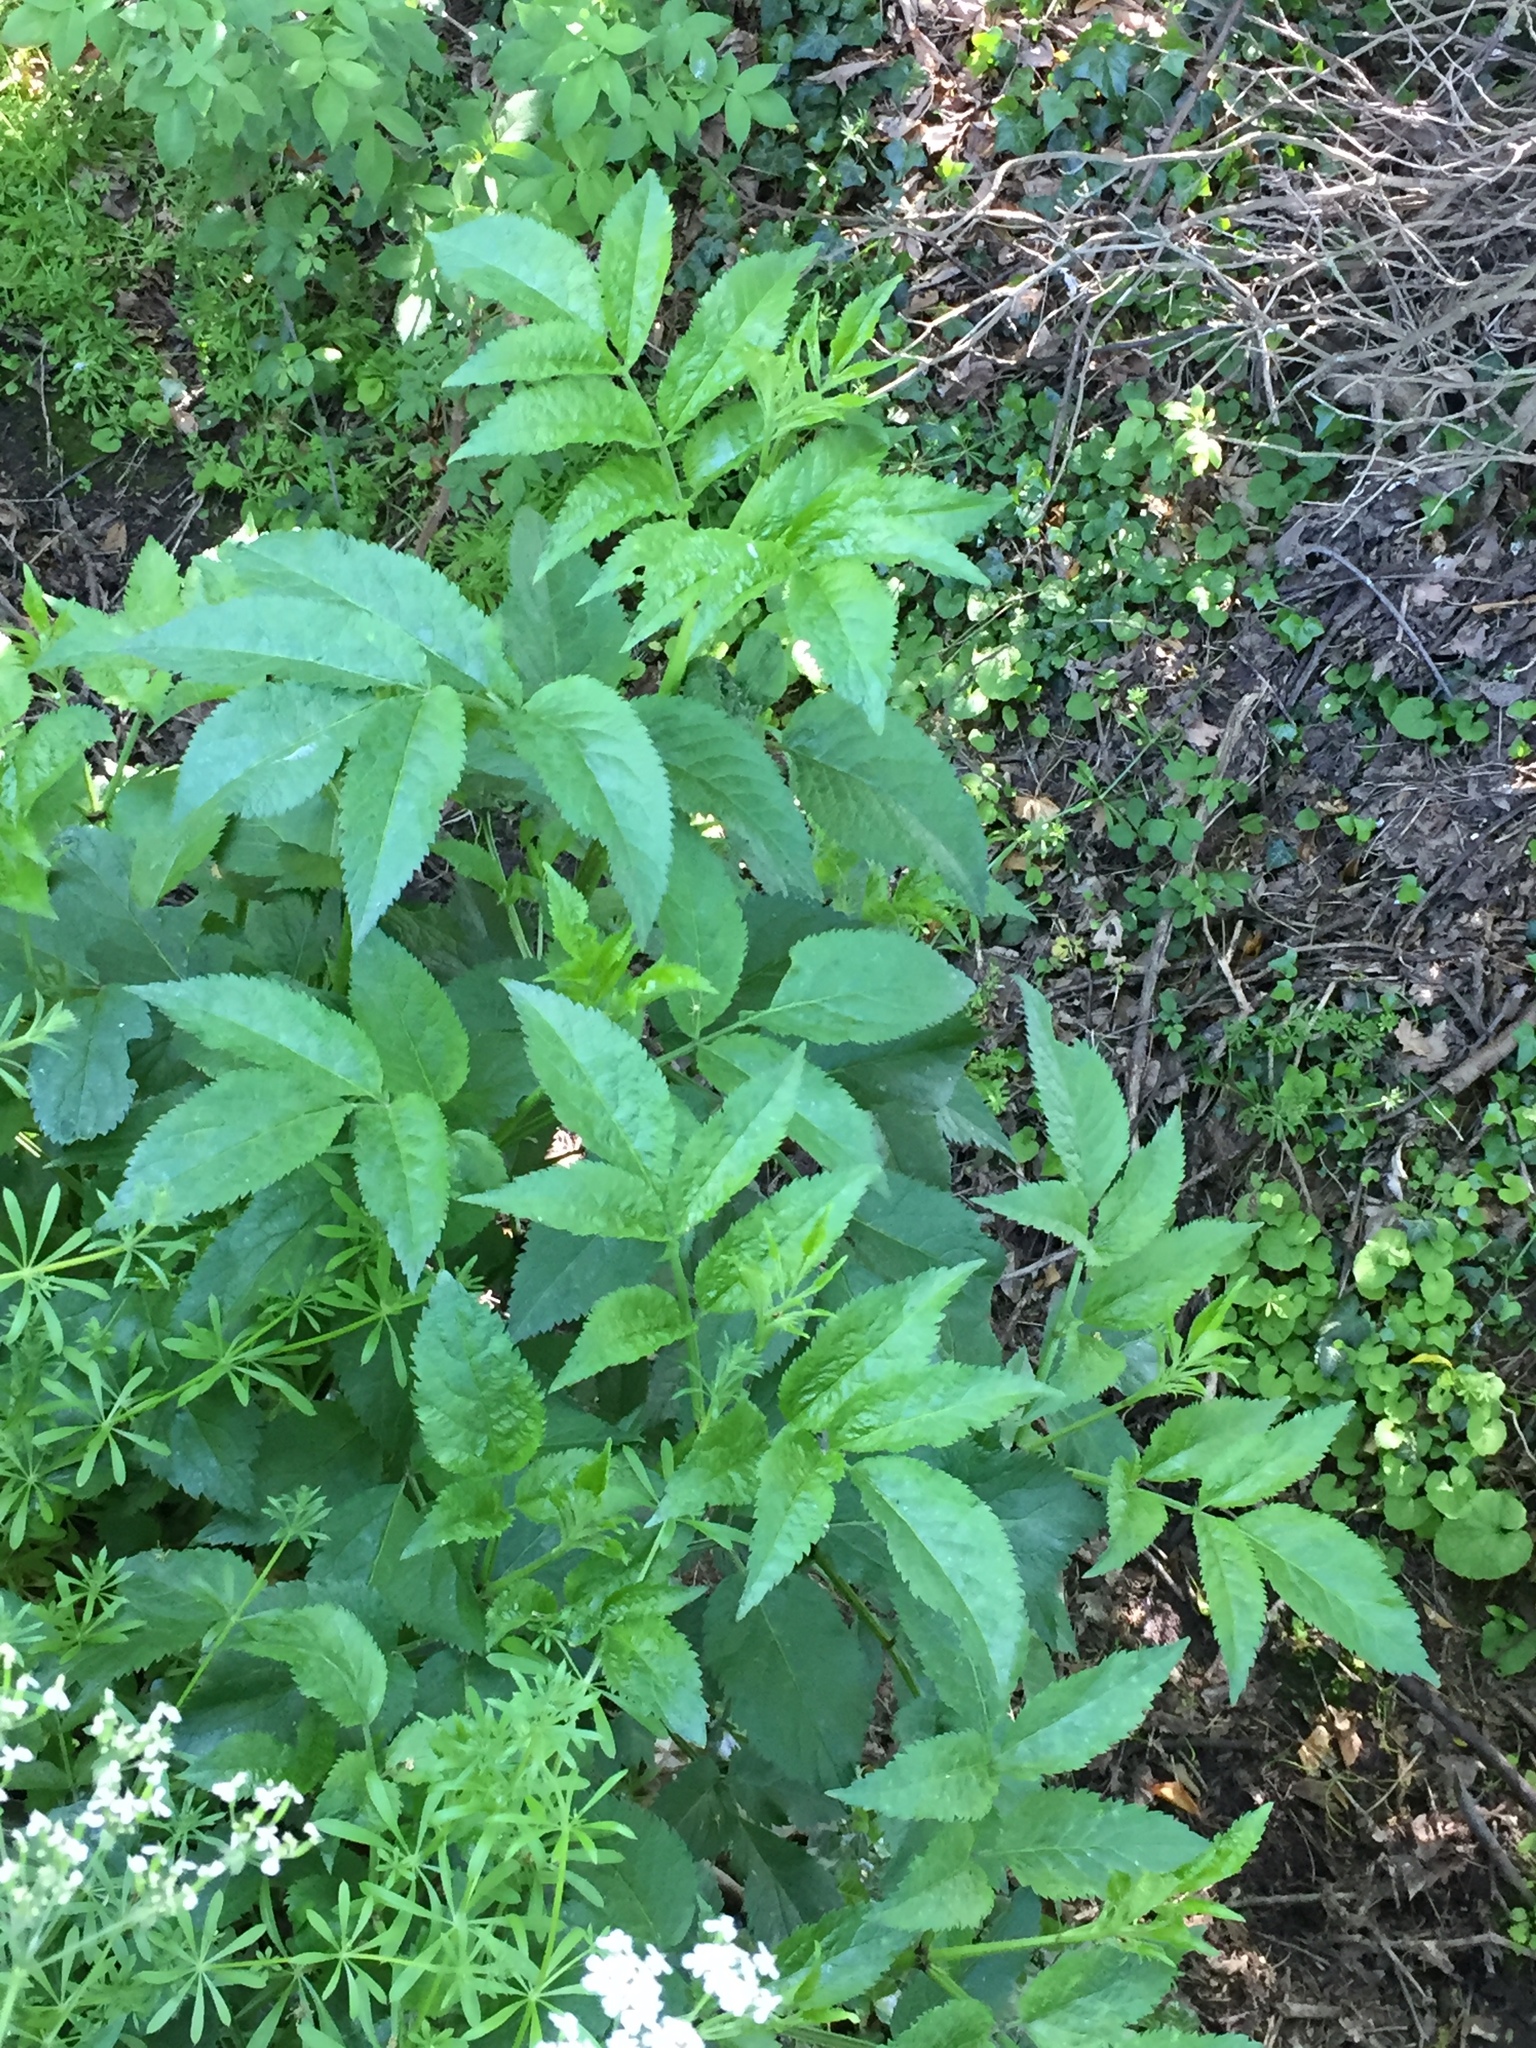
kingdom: Plantae
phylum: Tracheophyta
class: Magnoliopsida
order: Dipsacales
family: Viburnaceae
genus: Sambucus
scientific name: Sambucus nigra
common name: Elder
